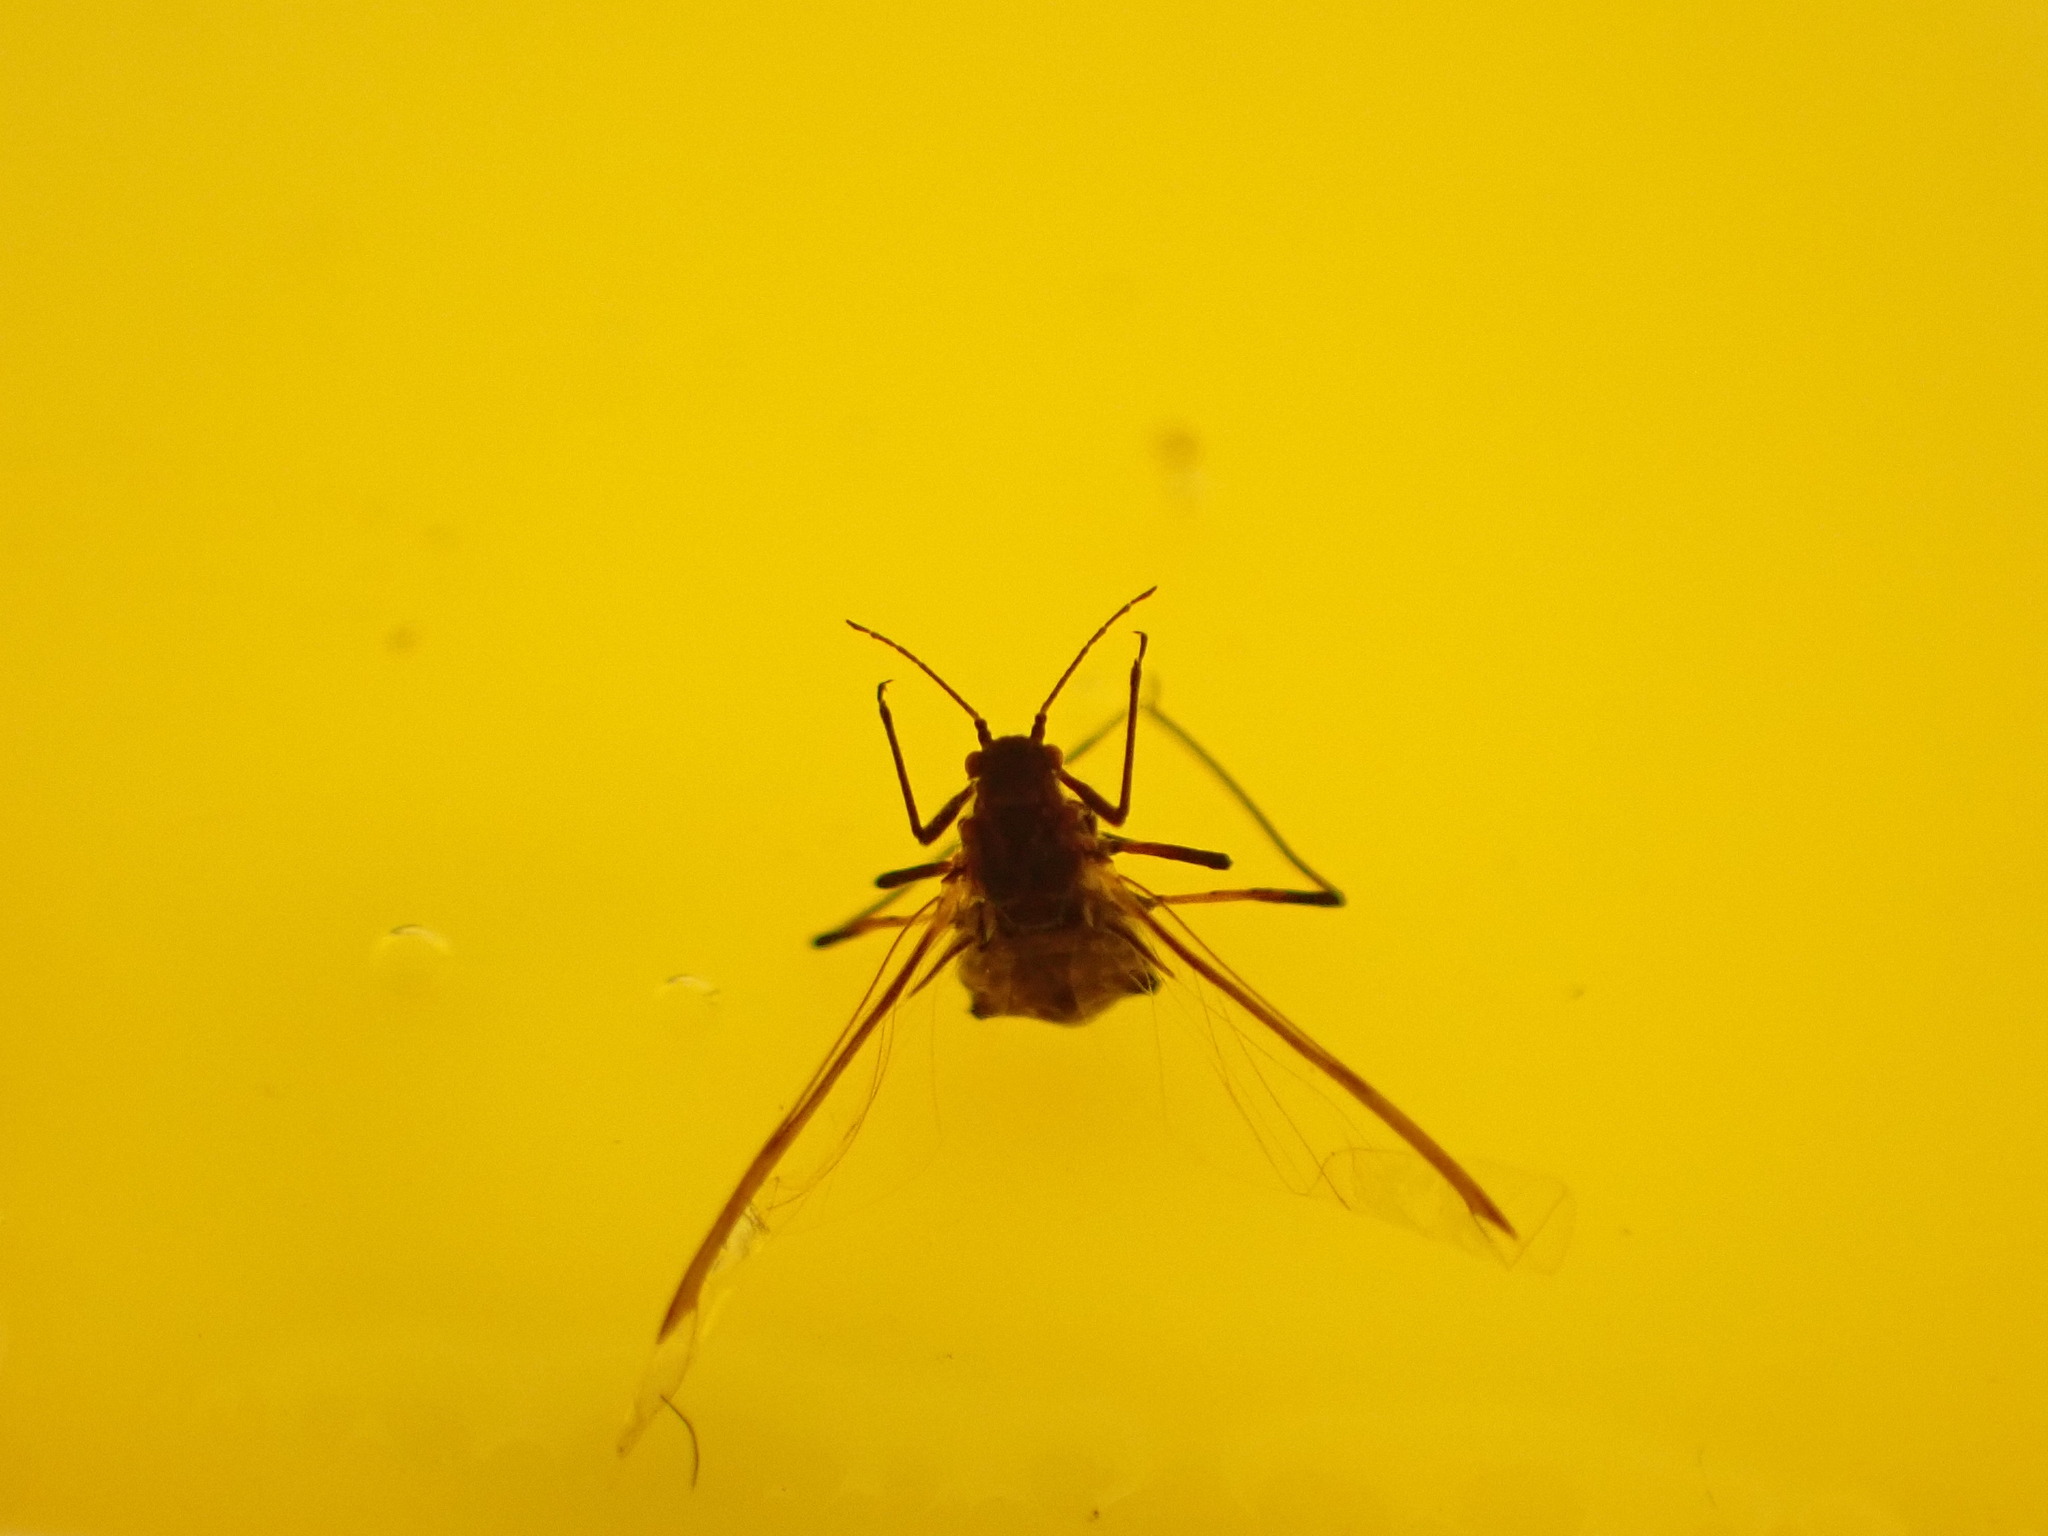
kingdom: Animalia
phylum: Arthropoda
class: Insecta
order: Hemiptera
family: Aphididae
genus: Tuberolachnus
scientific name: Tuberolachnus salignus
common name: Giant willow aphid
